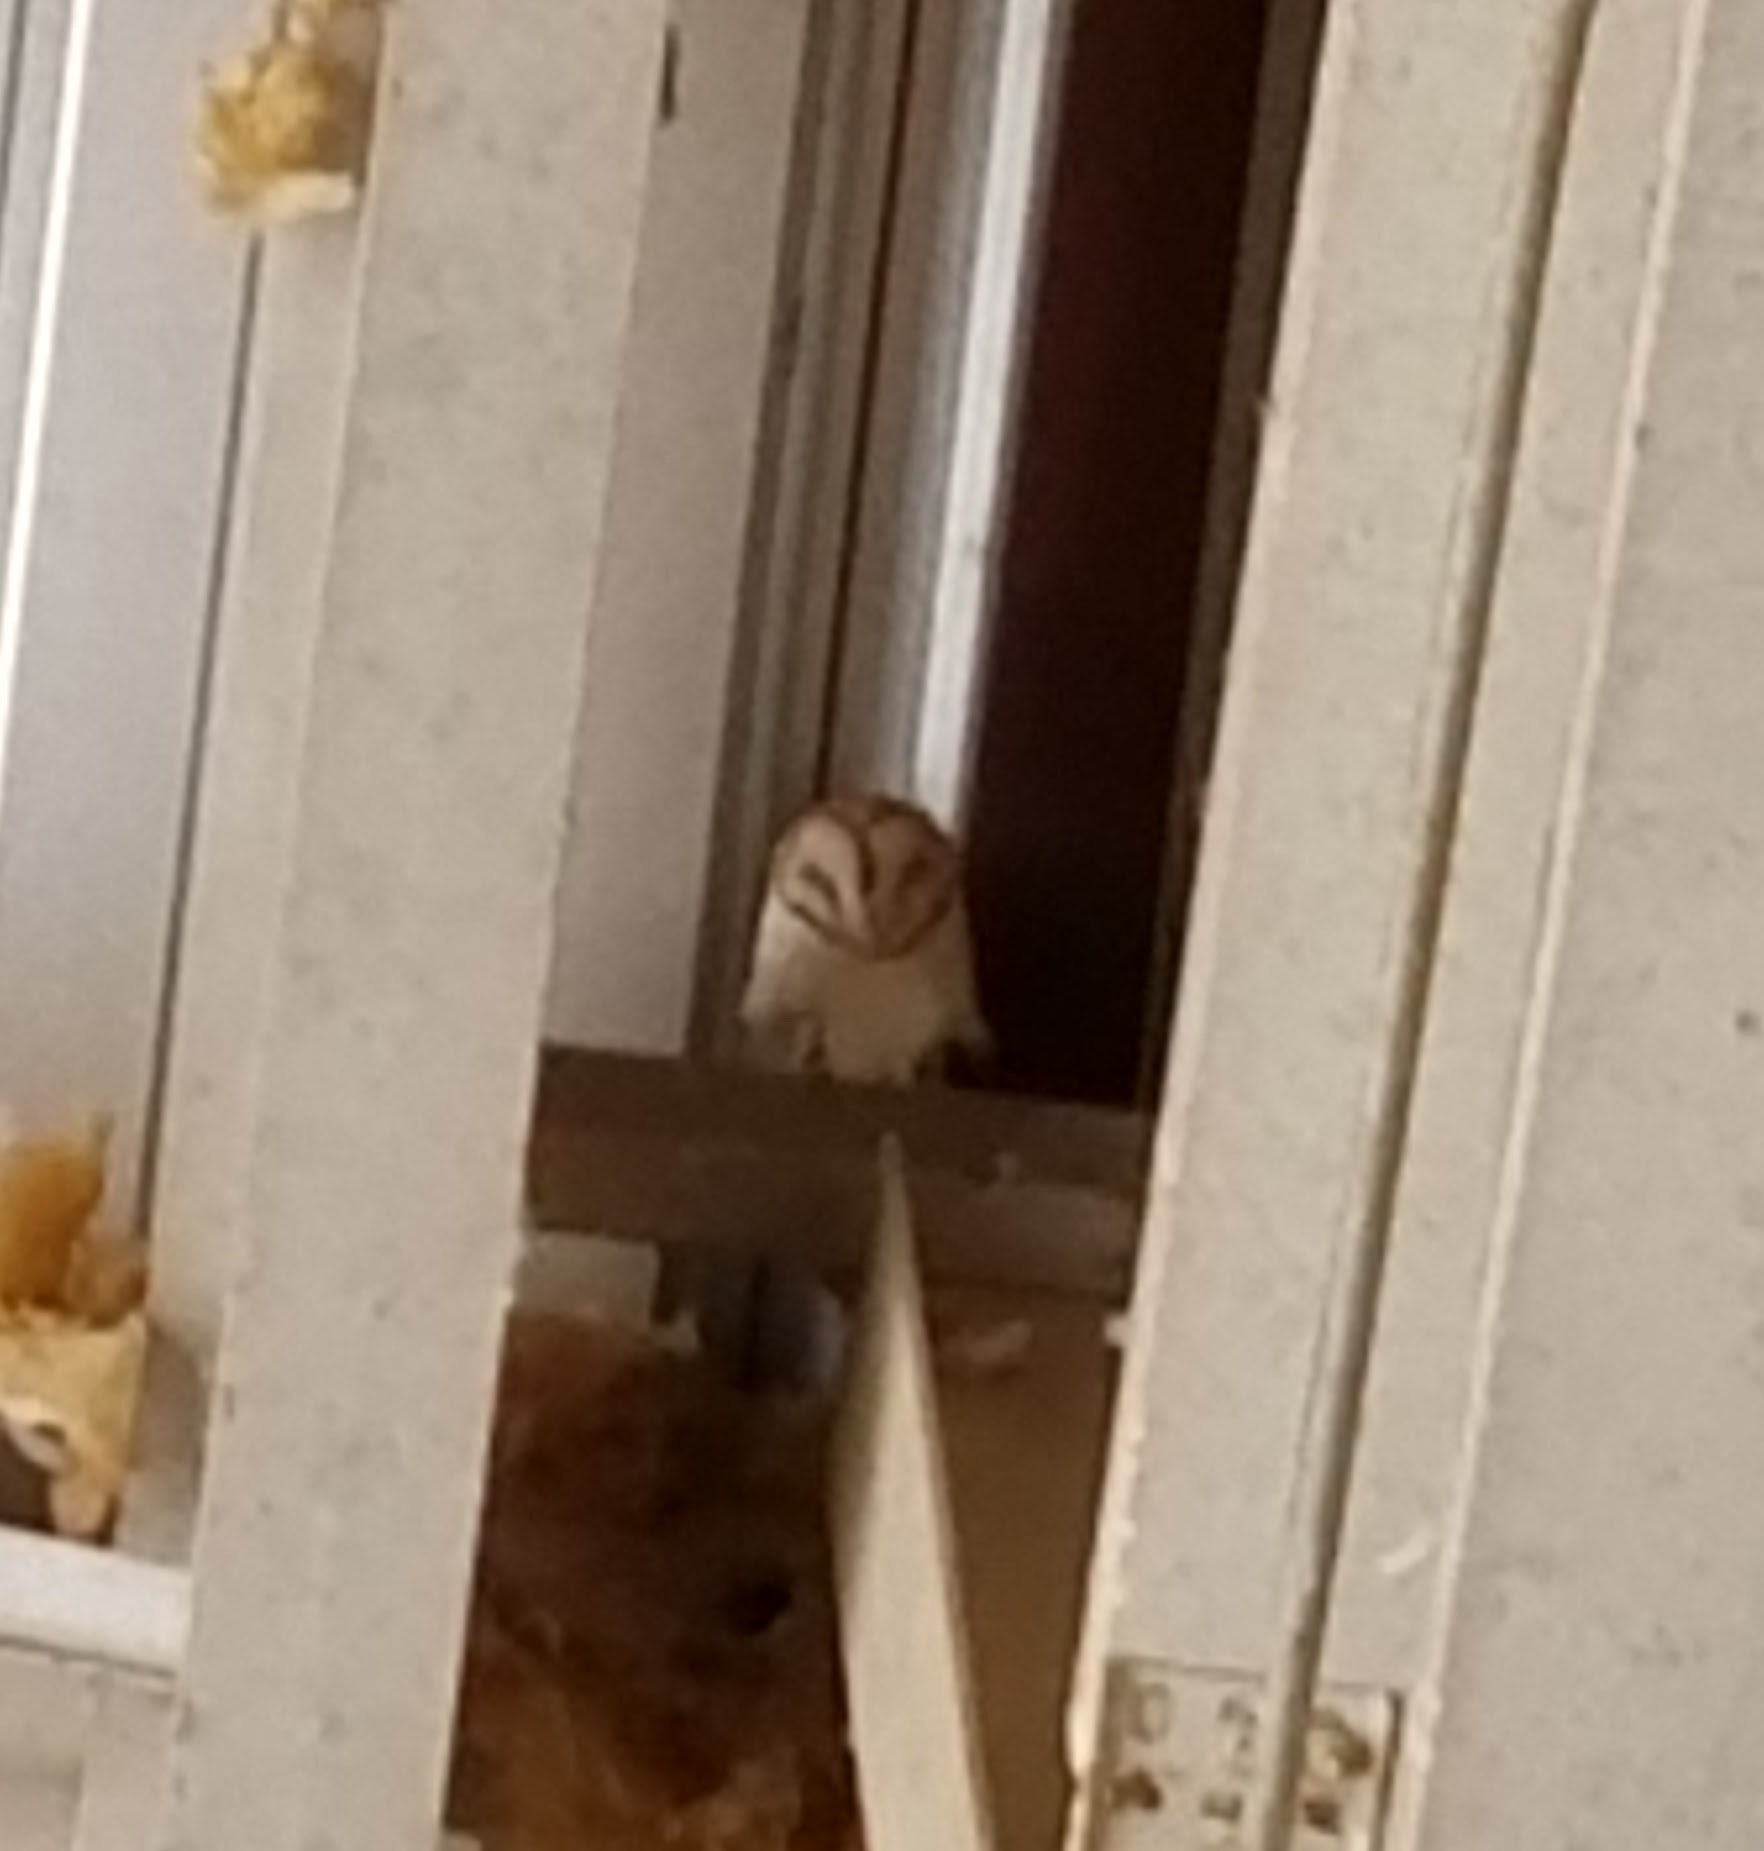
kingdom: Animalia
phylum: Chordata
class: Aves
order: Strigiformes
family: Tytonidae
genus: Tyto
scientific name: Tyto alba
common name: Barn owl
